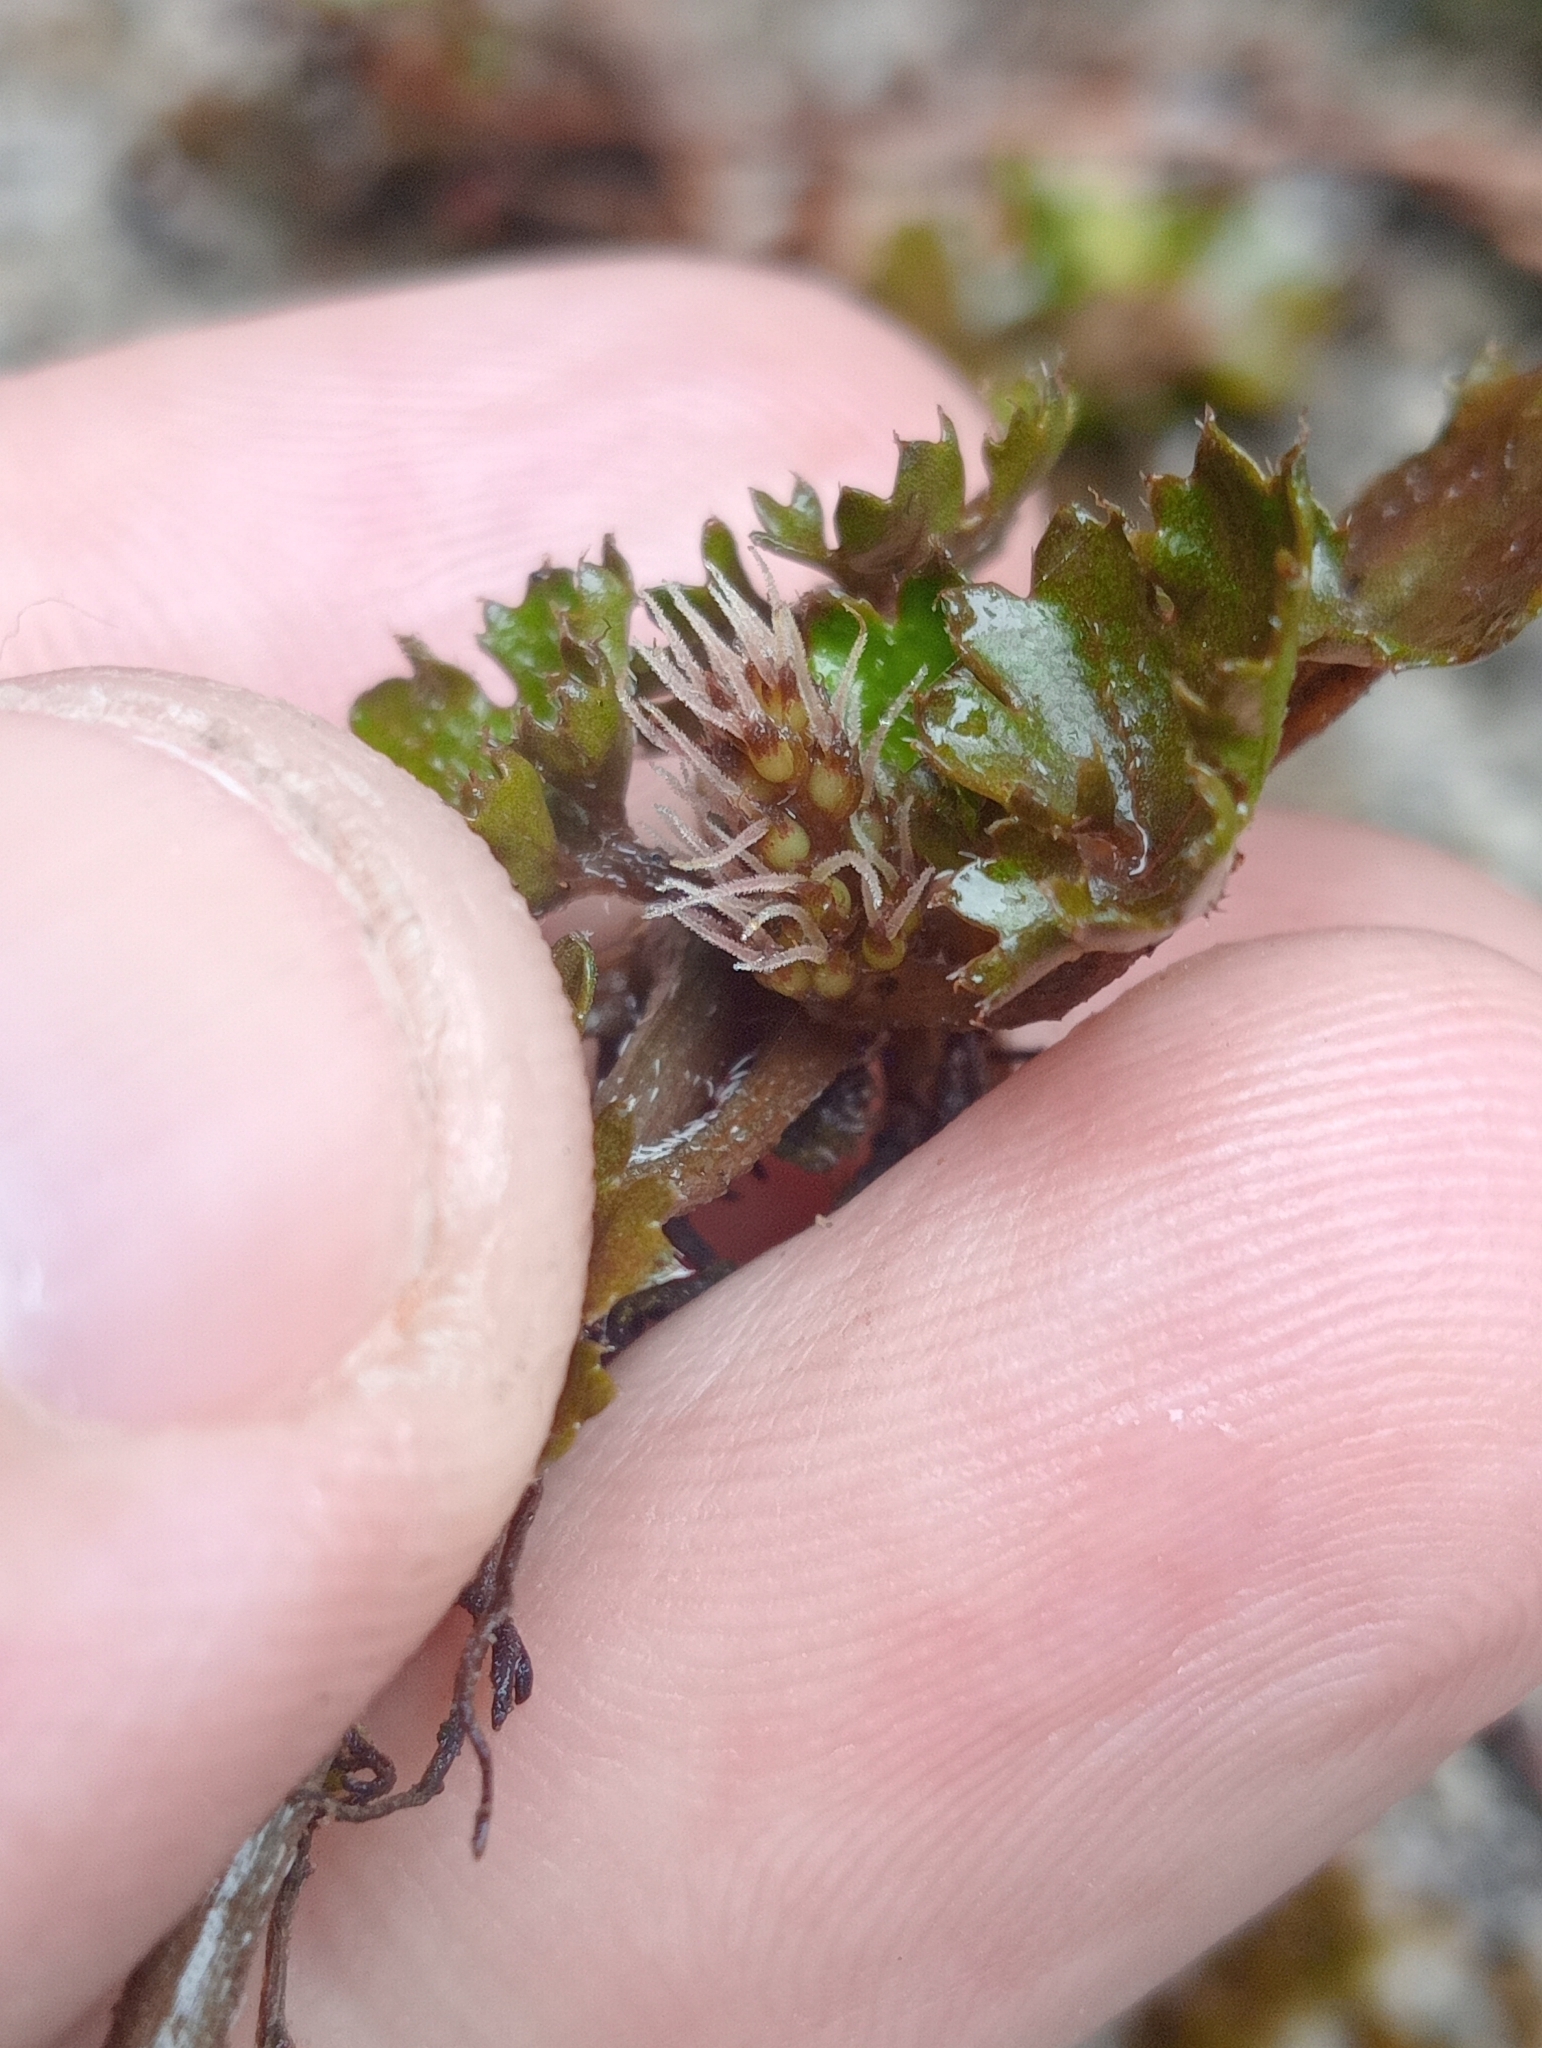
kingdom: Plantae
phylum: Tracheophyta
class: Magnoliopsida
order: Gunnerales
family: Gunneraceae
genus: Gunnera
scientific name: Gunnera monoica
